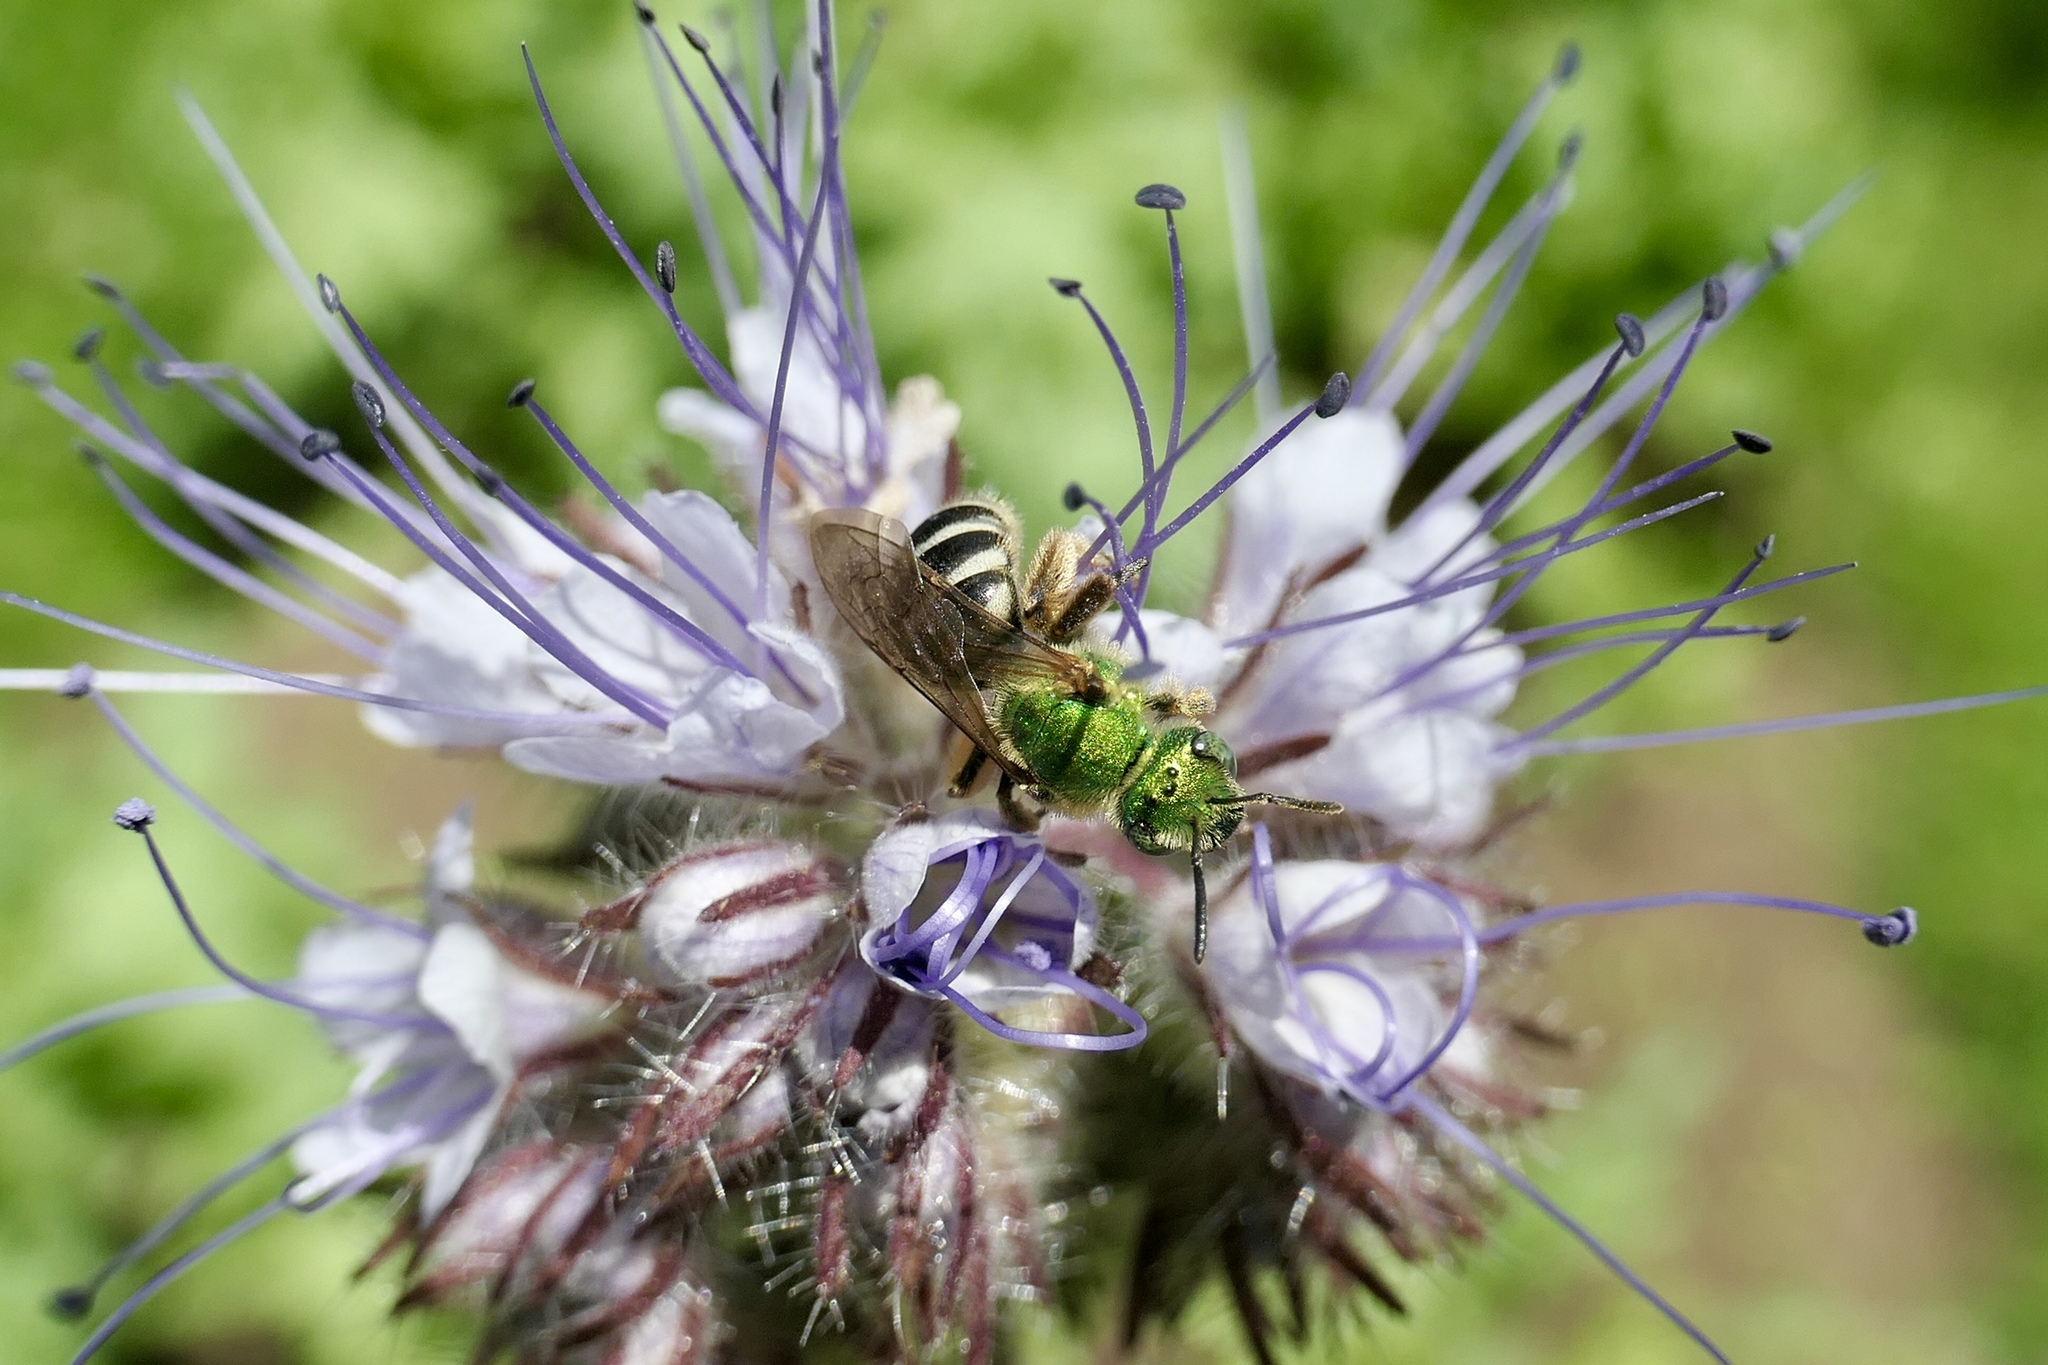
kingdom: Animalia
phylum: Arthropoda
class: Insecta
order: Hymenoptera
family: Halictidae
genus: Agapostemon
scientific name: Agapostemon virescens
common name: Bicolored striped sweat bee
